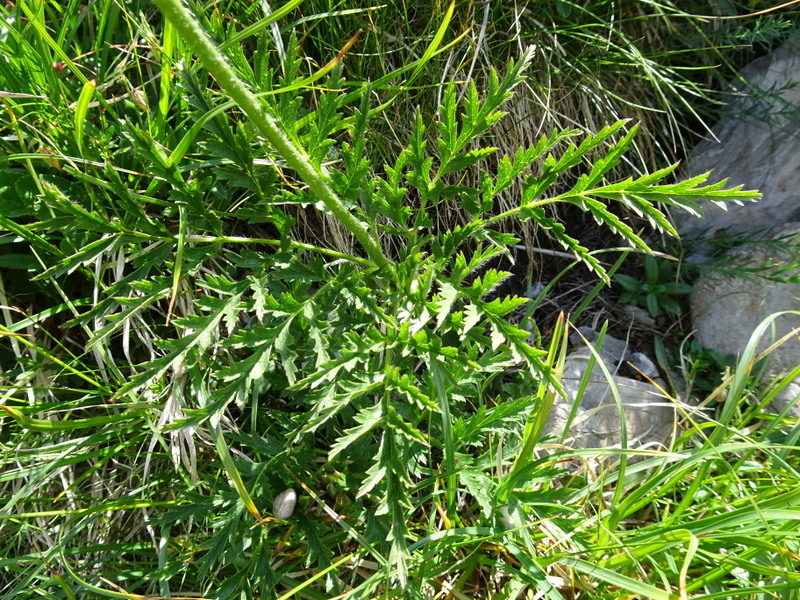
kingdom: Plantae
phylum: Tracheophyta
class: Magnoliopsida
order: Ranunculales
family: Ranunculaceae
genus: Pulsatilla
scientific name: Pulsatilla alpina
